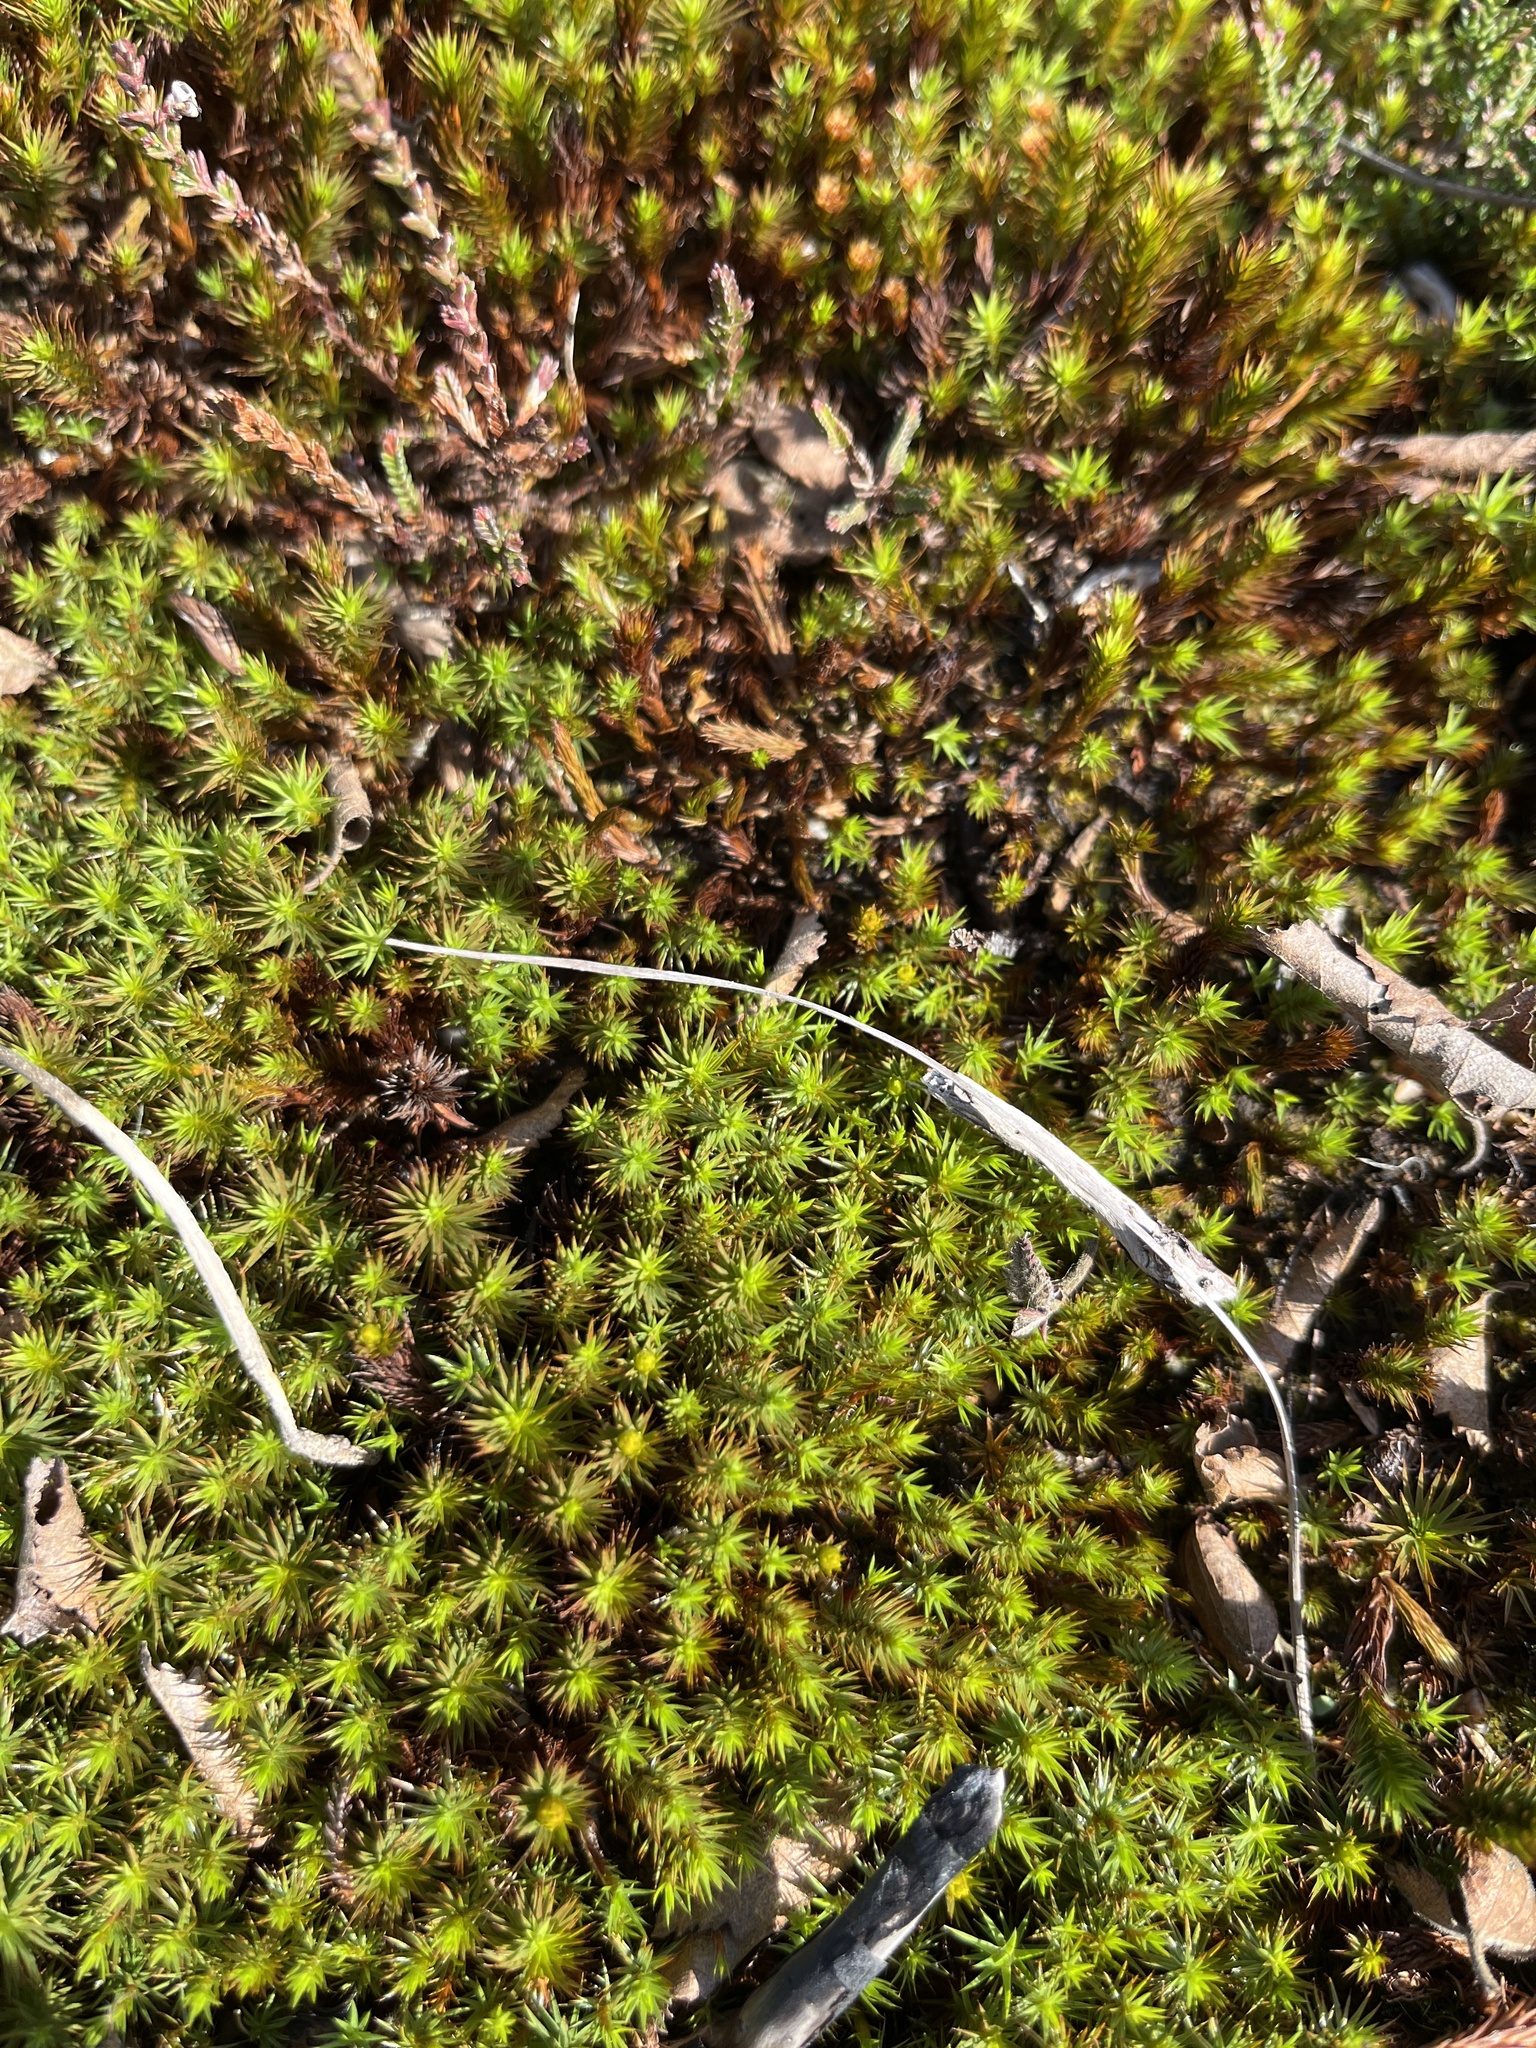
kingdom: Plantae
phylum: Bryophyta
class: Polytrichopsida
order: Polytrichales
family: Polytrichaceae
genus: Polytrichum
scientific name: Polytrichum juniperinum
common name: Juniper haircap moss
